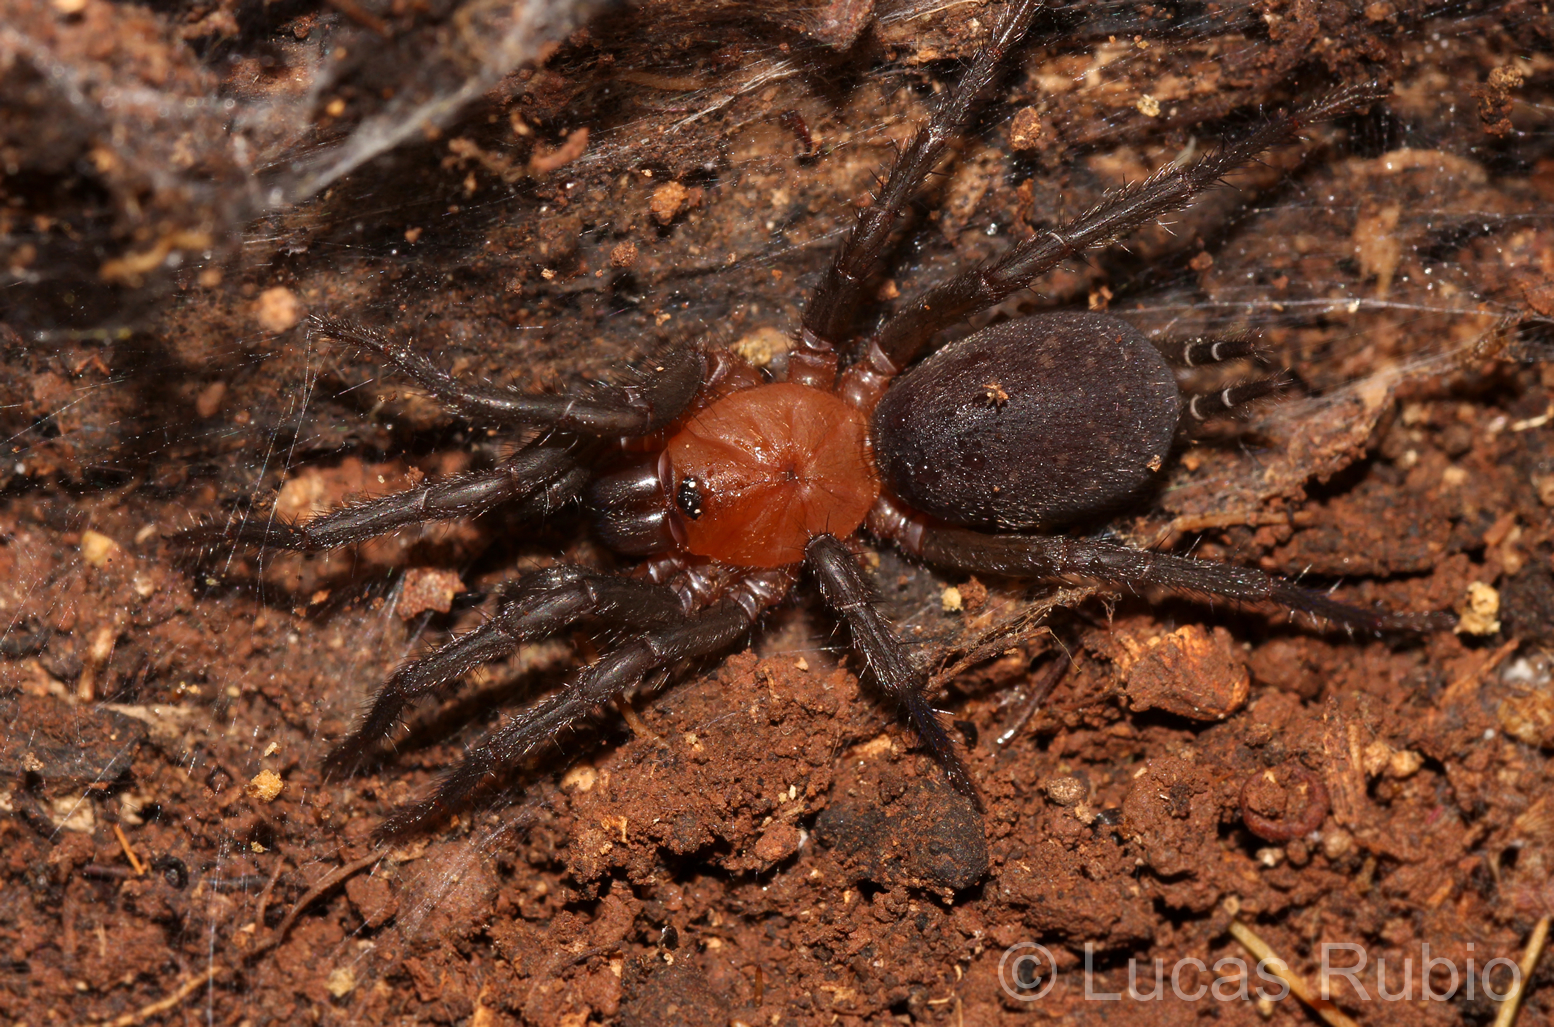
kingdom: Animalia
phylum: Arthropoda
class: Arachnida
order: Araneae
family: Dipluridae
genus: Diplura
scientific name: Diplura paraguayensis
